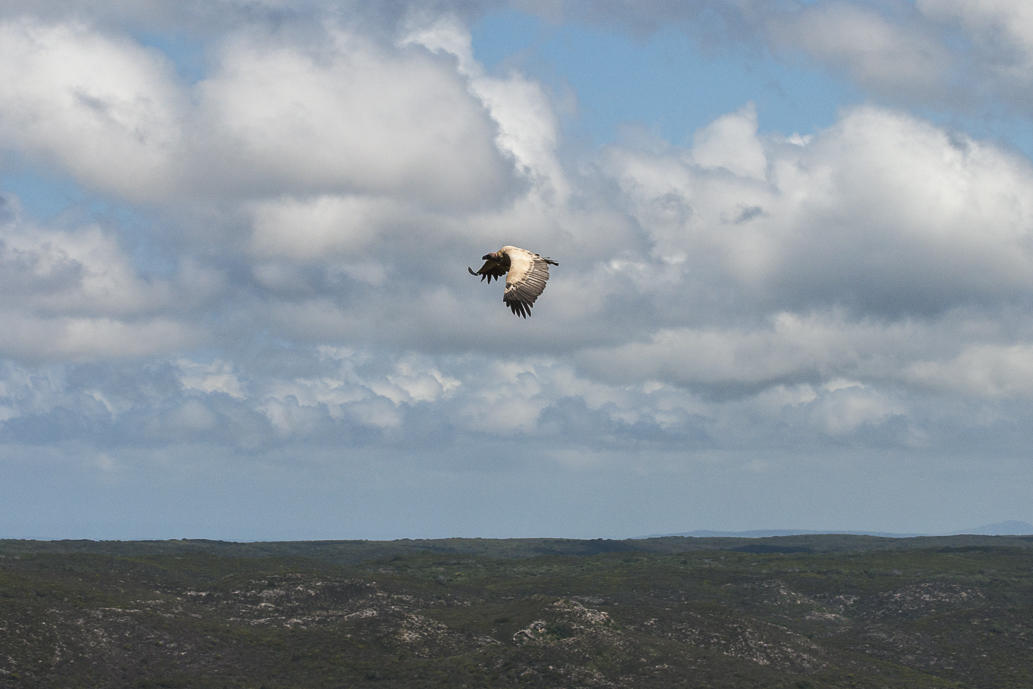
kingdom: Animalia
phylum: Chordata
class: Aves
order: Accipitriformes
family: Accipitridae
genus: Gyps
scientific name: Gyps coprotheres
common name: Cape vulture
